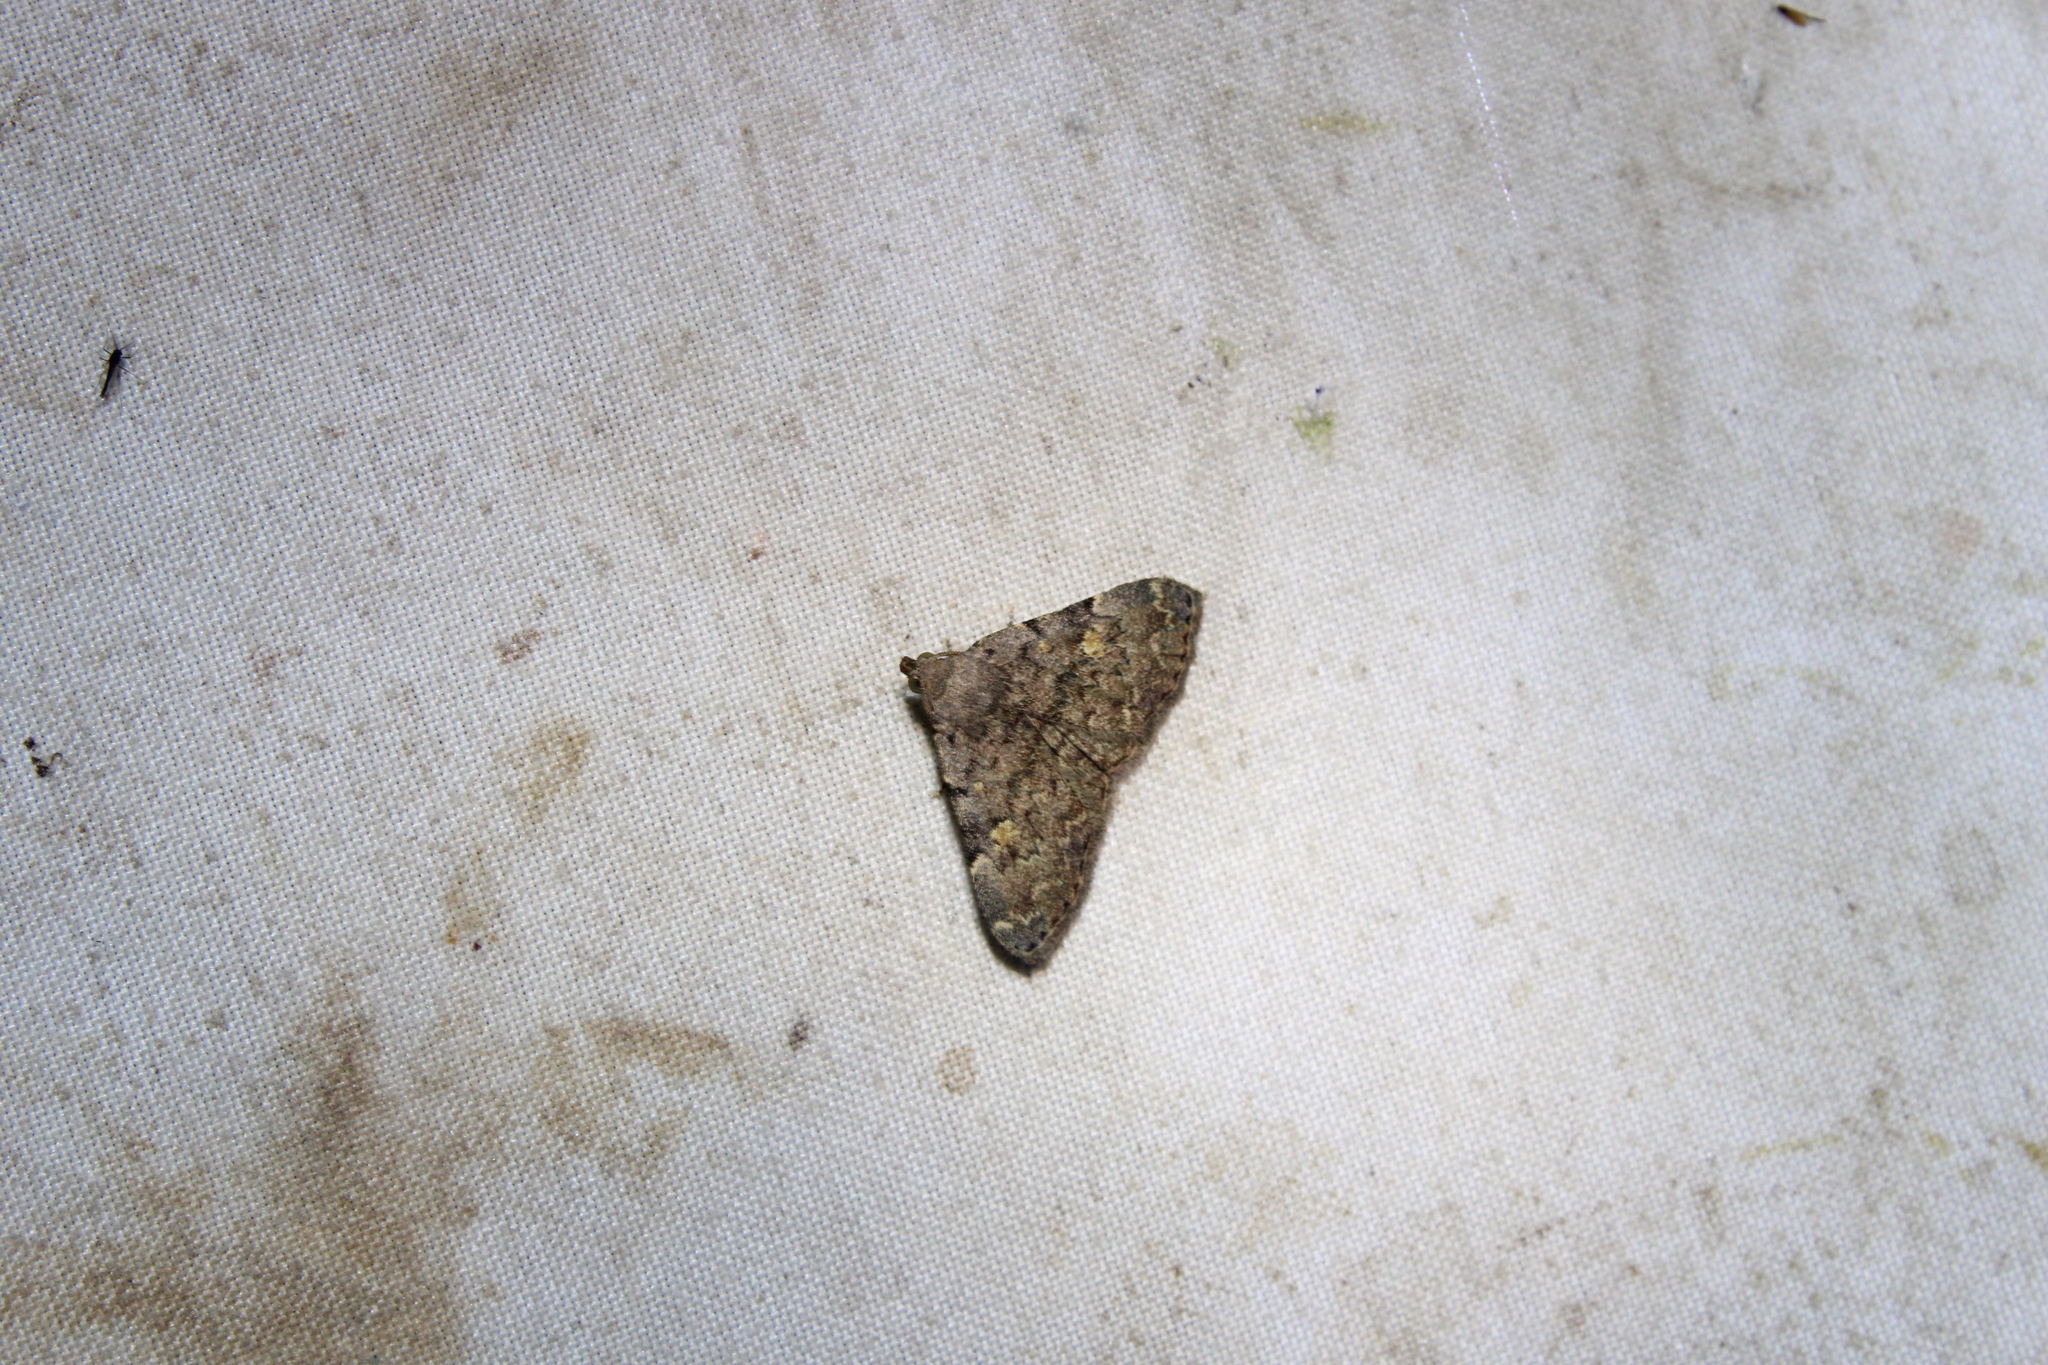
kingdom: Animalia
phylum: Arthropoda
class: Insecta
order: Lepidoptera
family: Erebidae
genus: Idia
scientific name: Idia aemula
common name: Common idia moth
